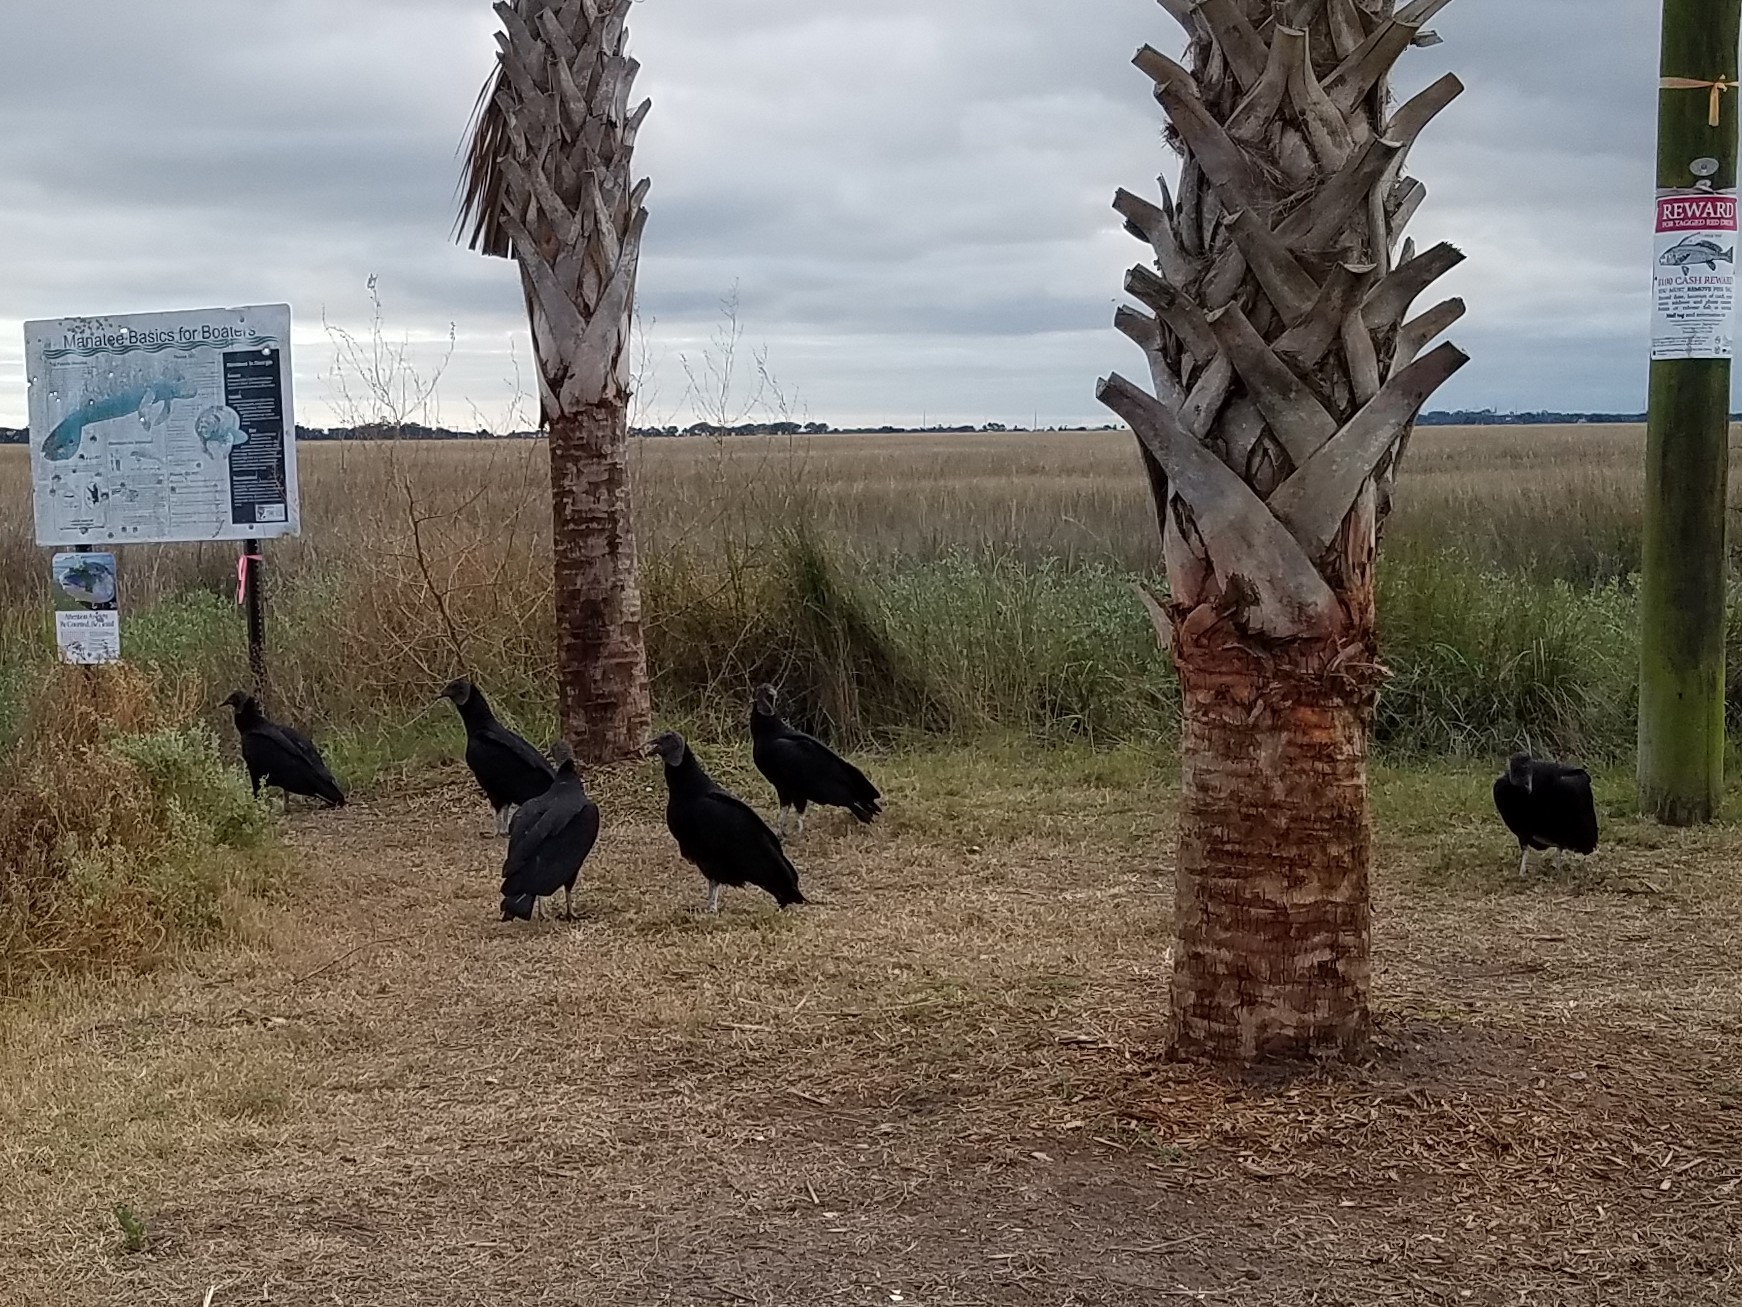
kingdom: Animalia
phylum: Chordata
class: Aves
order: Accipitriformes
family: Cathartidae
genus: Coragyps
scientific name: Coragyps atratus
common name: Black vulture
